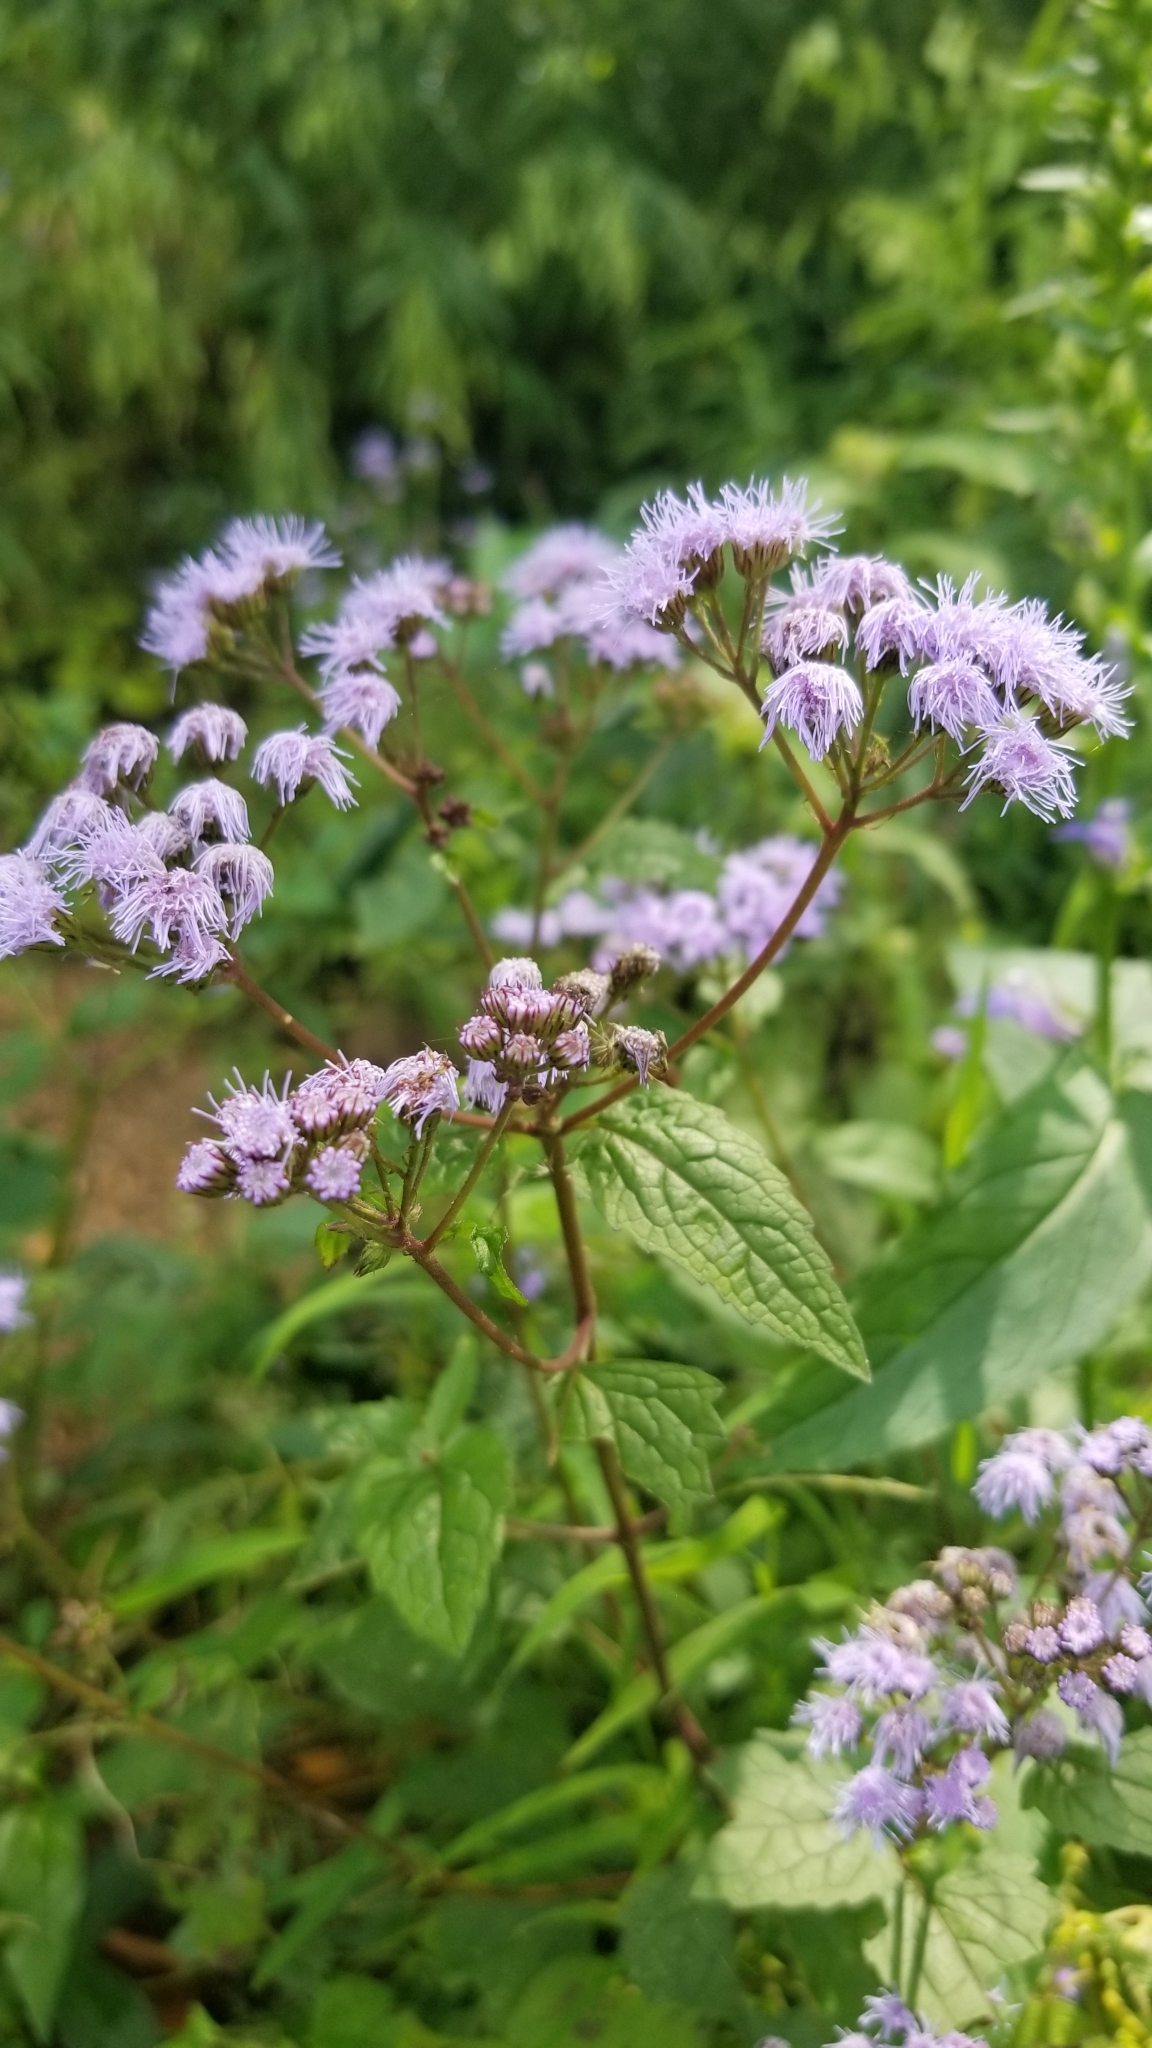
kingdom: Plantae
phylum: Tracheophyta
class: Magnoliopsida
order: Asterales
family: Asteraceae
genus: Conoclinium
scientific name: Conoclinium coelestinum
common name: Blue mistflower
